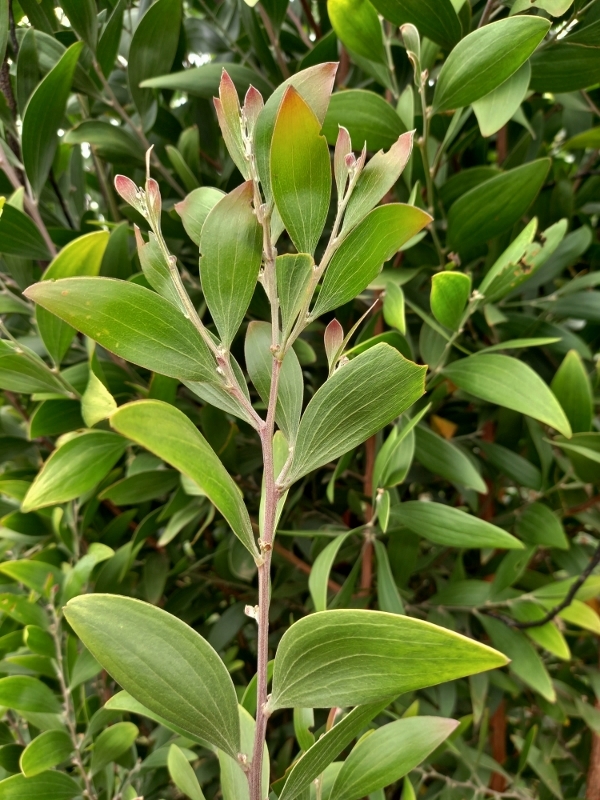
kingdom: Plantae
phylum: Tracheophyta
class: Magnoliopsida
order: Fabales
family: Fabaceae
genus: Acacia
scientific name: Acacia melanoxylon
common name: Blackwood
